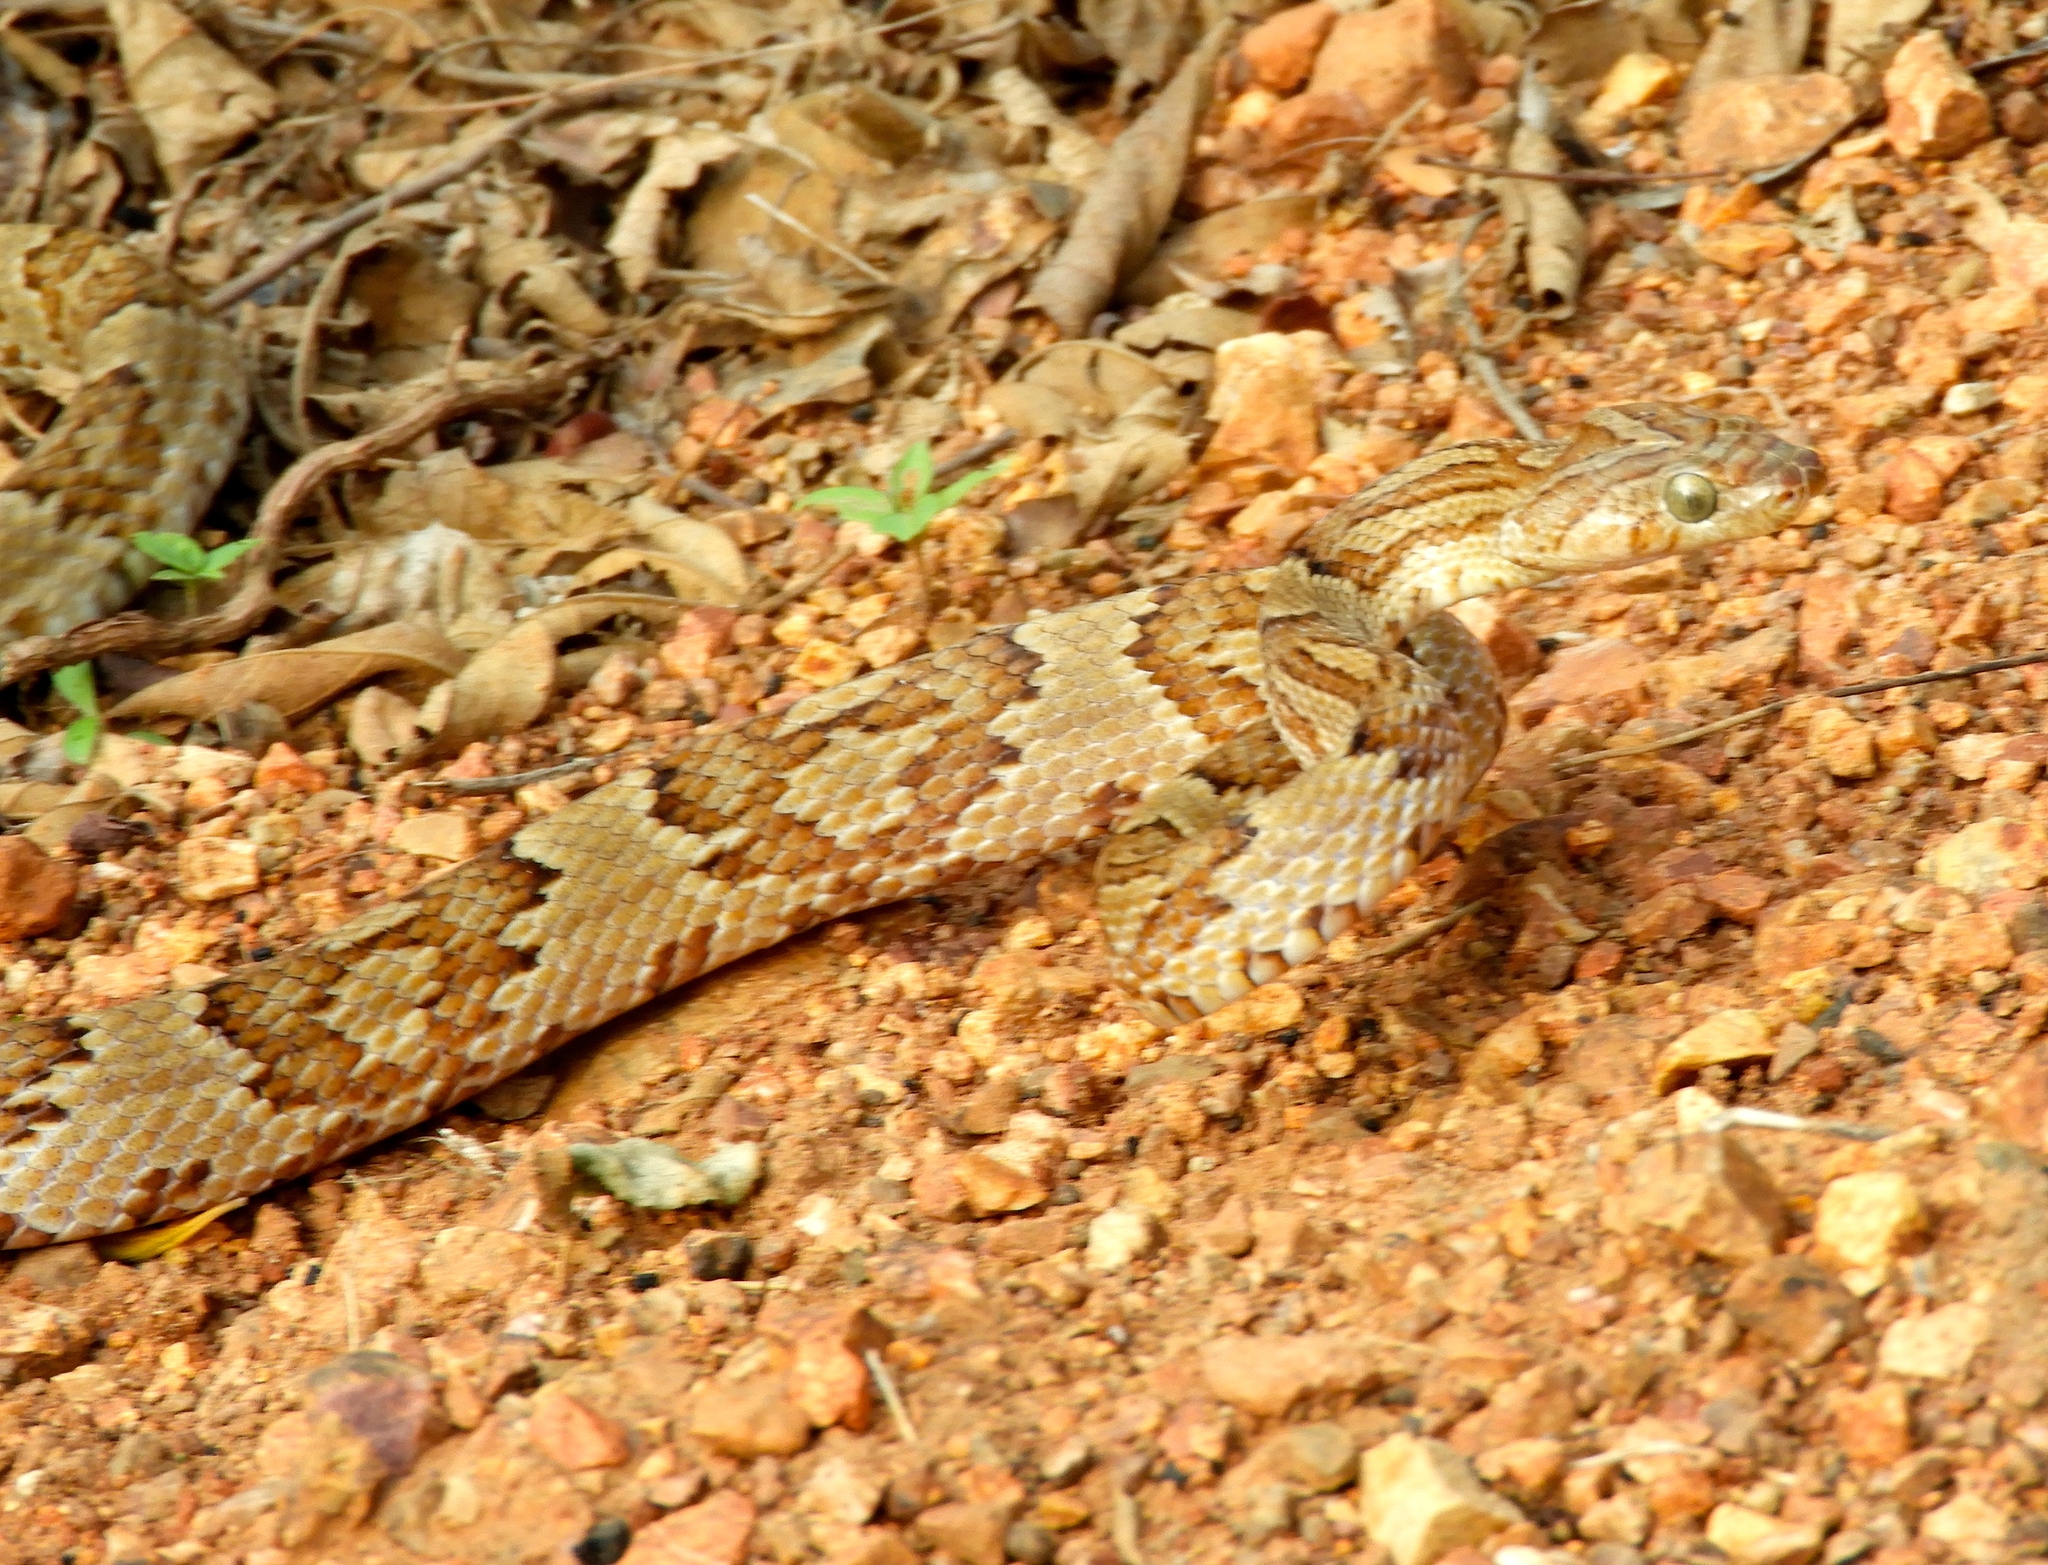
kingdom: Animalia
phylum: Chordata
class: Squamata
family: Colubridae
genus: Trimorphodon
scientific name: Trimorphodon paucimaculatus
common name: Sinaloan lyresnake
